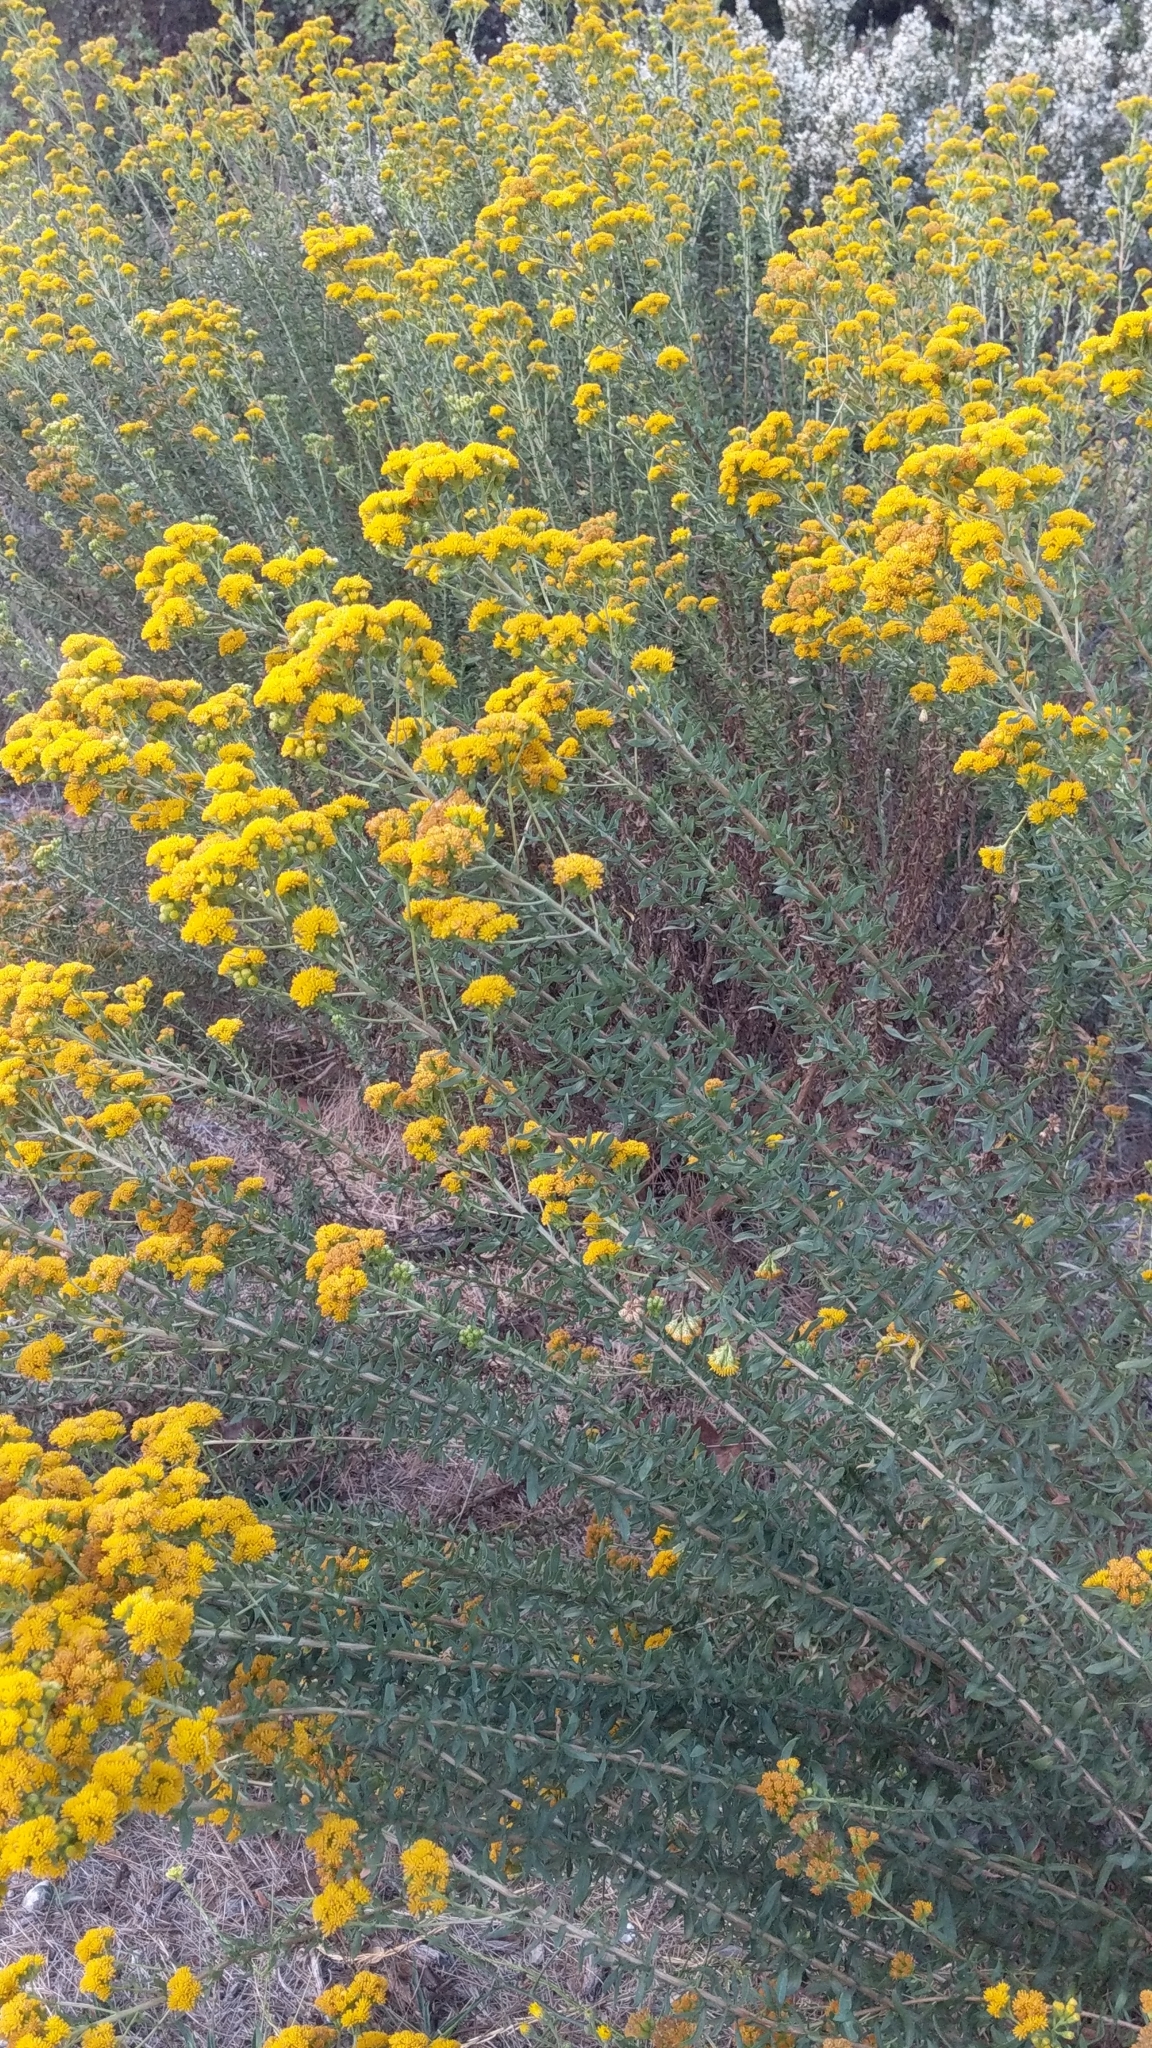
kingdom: Plantae
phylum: Tracheophyta
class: Magnoliopsida
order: Asterales
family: Asteraceae
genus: Isocoma
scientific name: Isocoma menziesii
